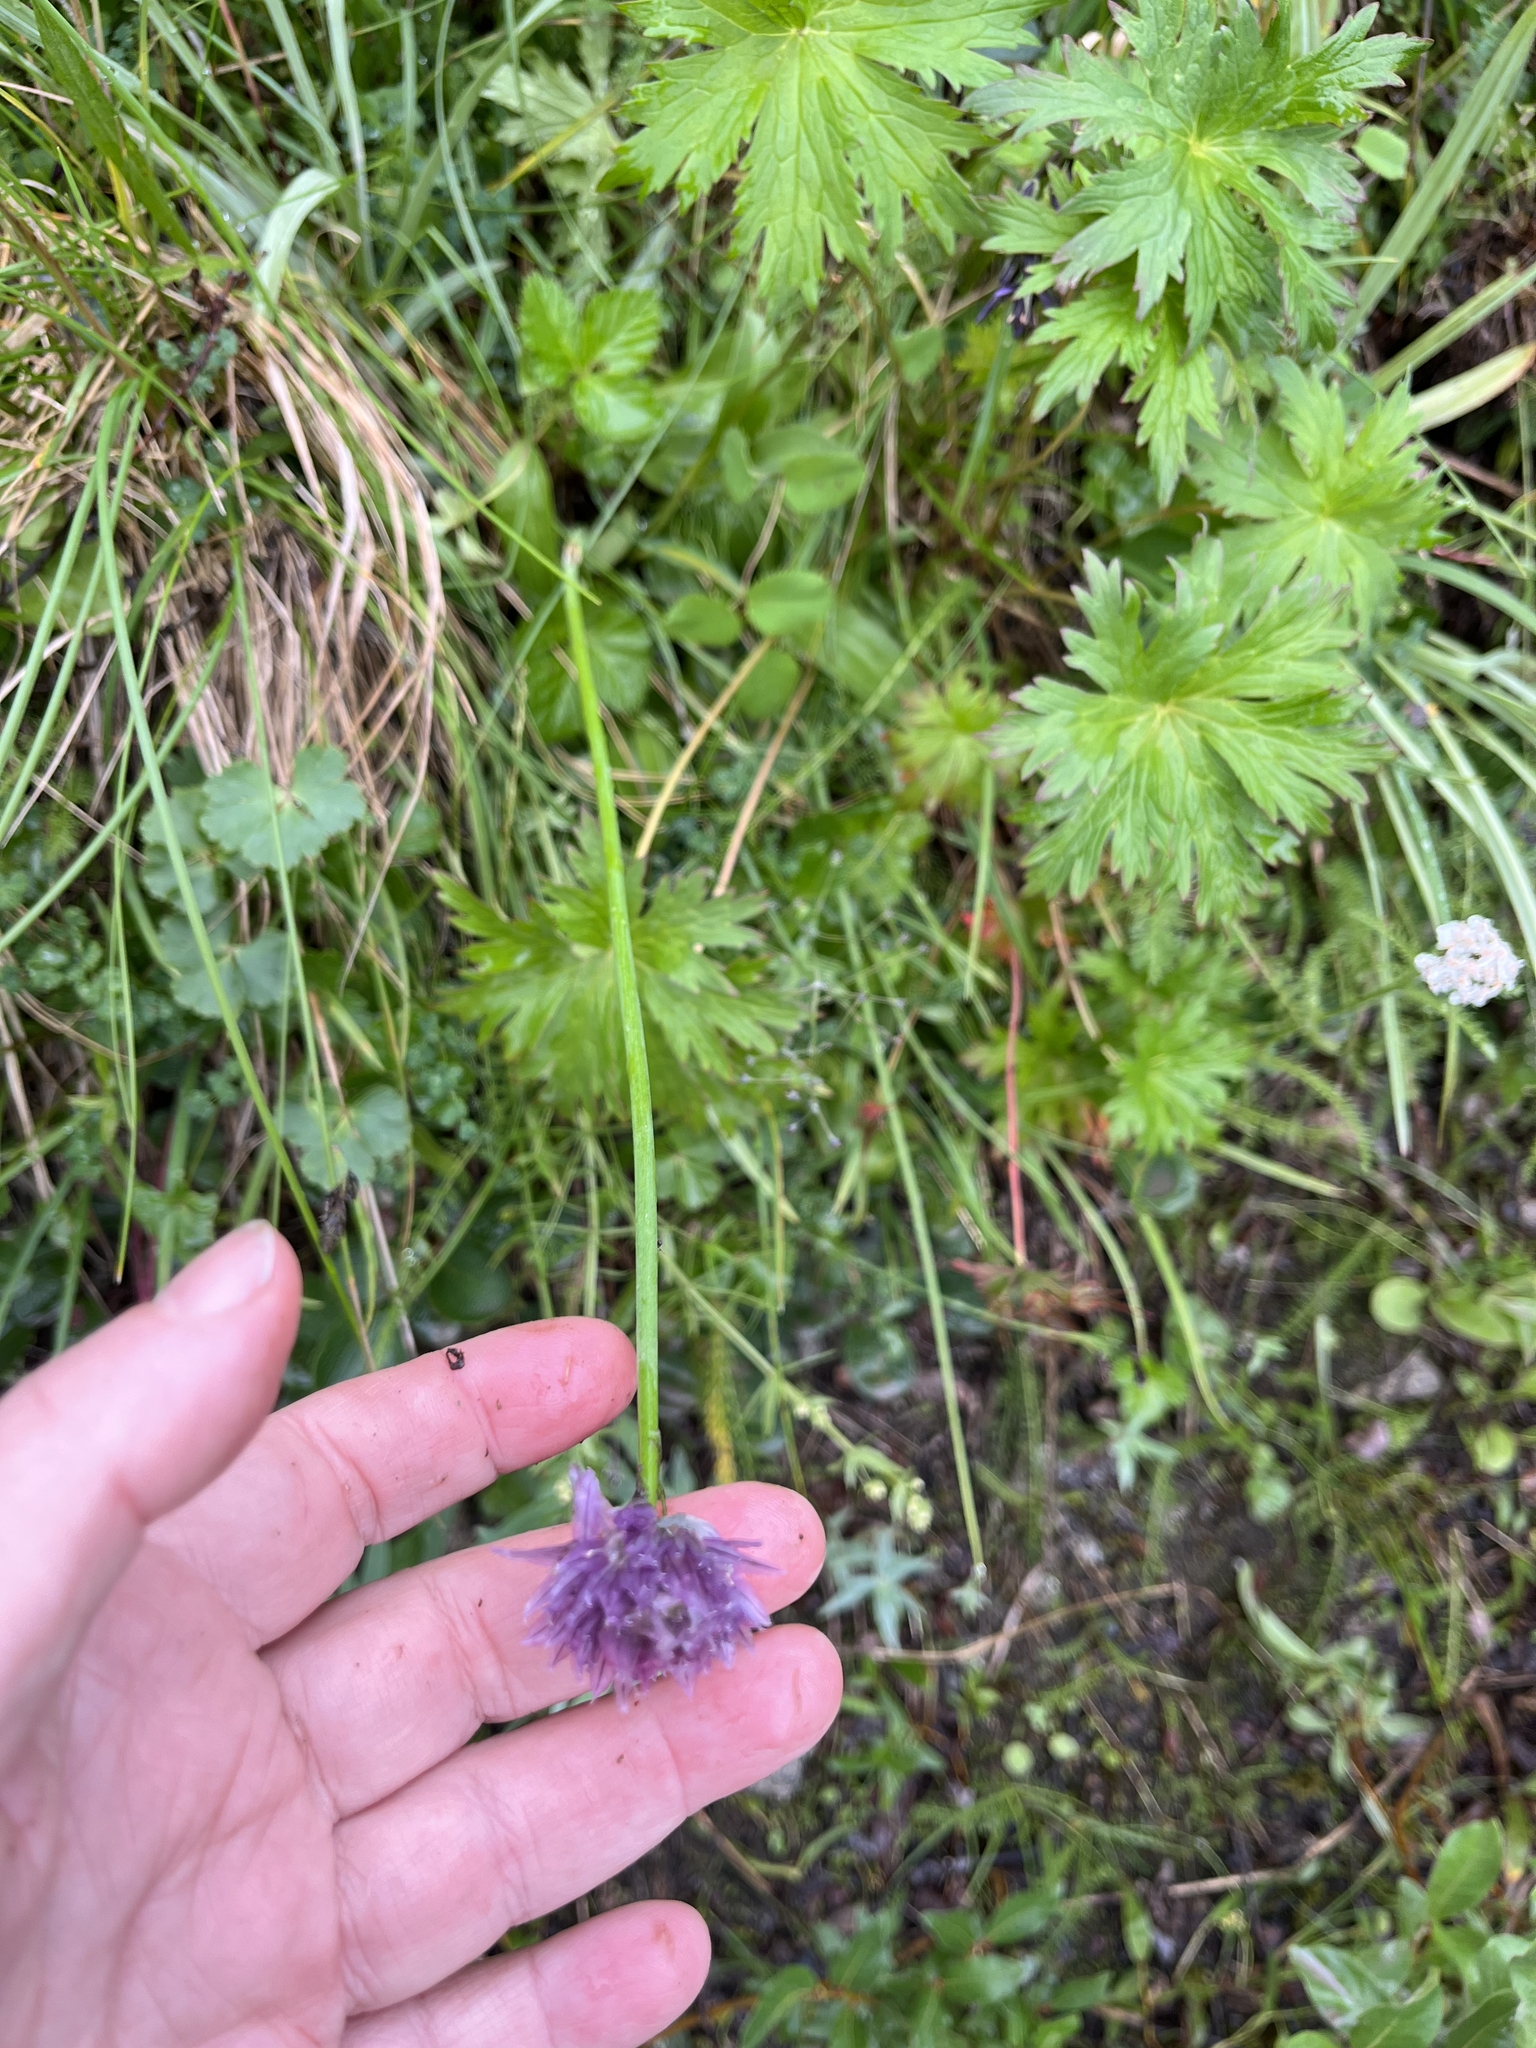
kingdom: Plantae
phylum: Tracheophyta
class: Liliopsida
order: Asparagales
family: Amaryllidaceae
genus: Allium
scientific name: Allium schoenoprasum
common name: Chives
